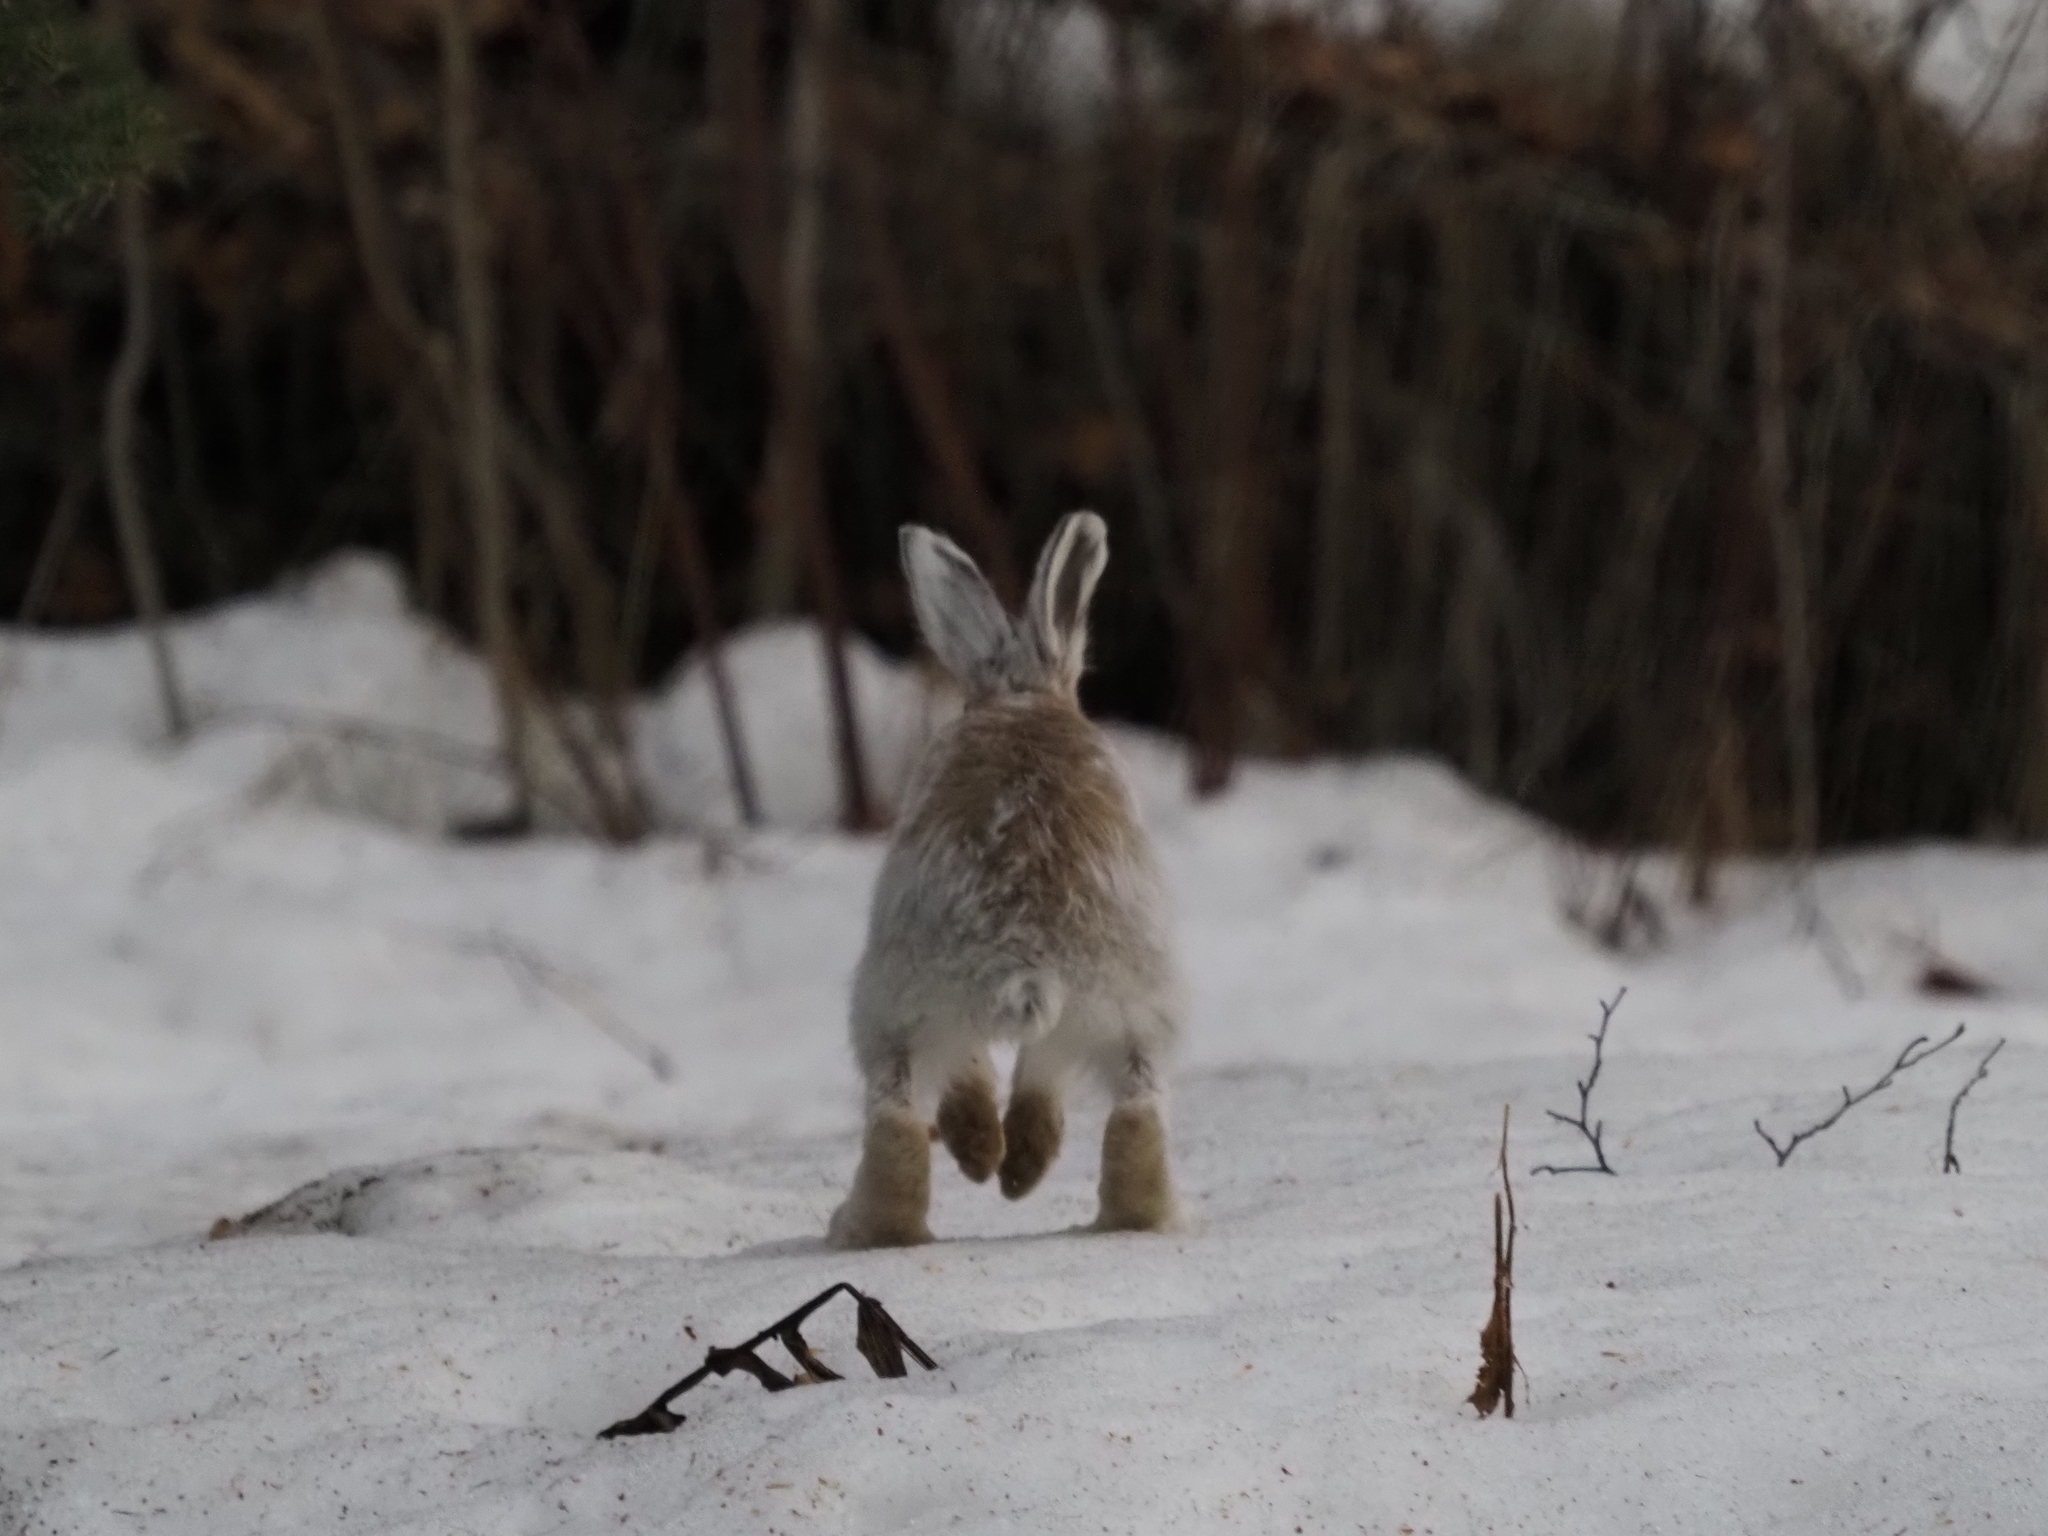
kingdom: Animalia
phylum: Chordata
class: Mammalia
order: Lagomorpha
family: Leporidae
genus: Lepus
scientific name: Lepus americanus
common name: Snowshoe hare
